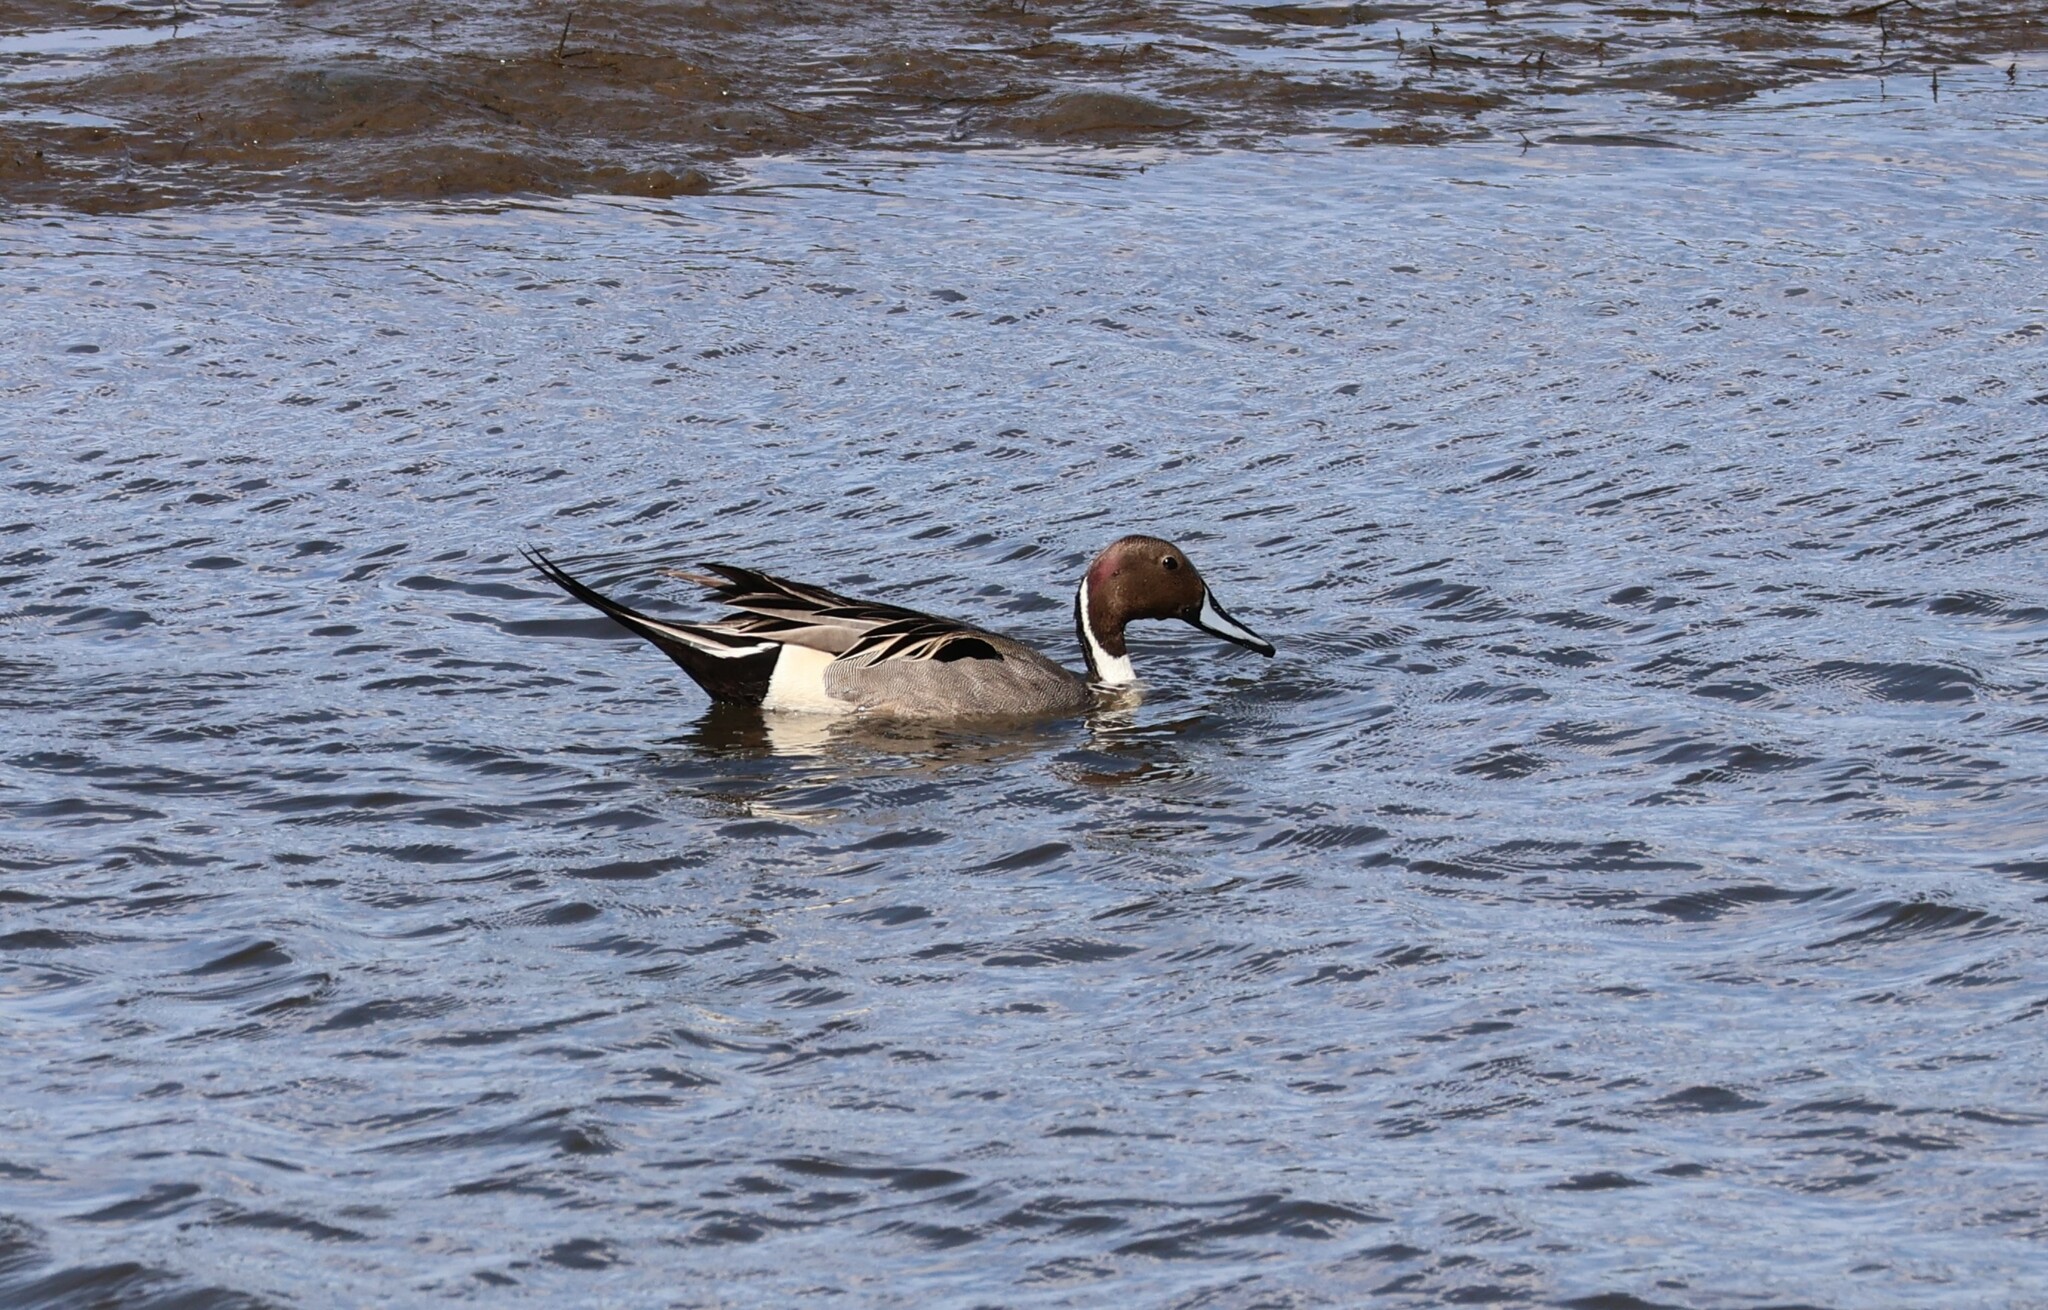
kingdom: Animalia
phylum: Chordata
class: Aves
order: Anseriformes
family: Anatidae
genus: Anas
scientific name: Anas acuta
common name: Northern pintail
